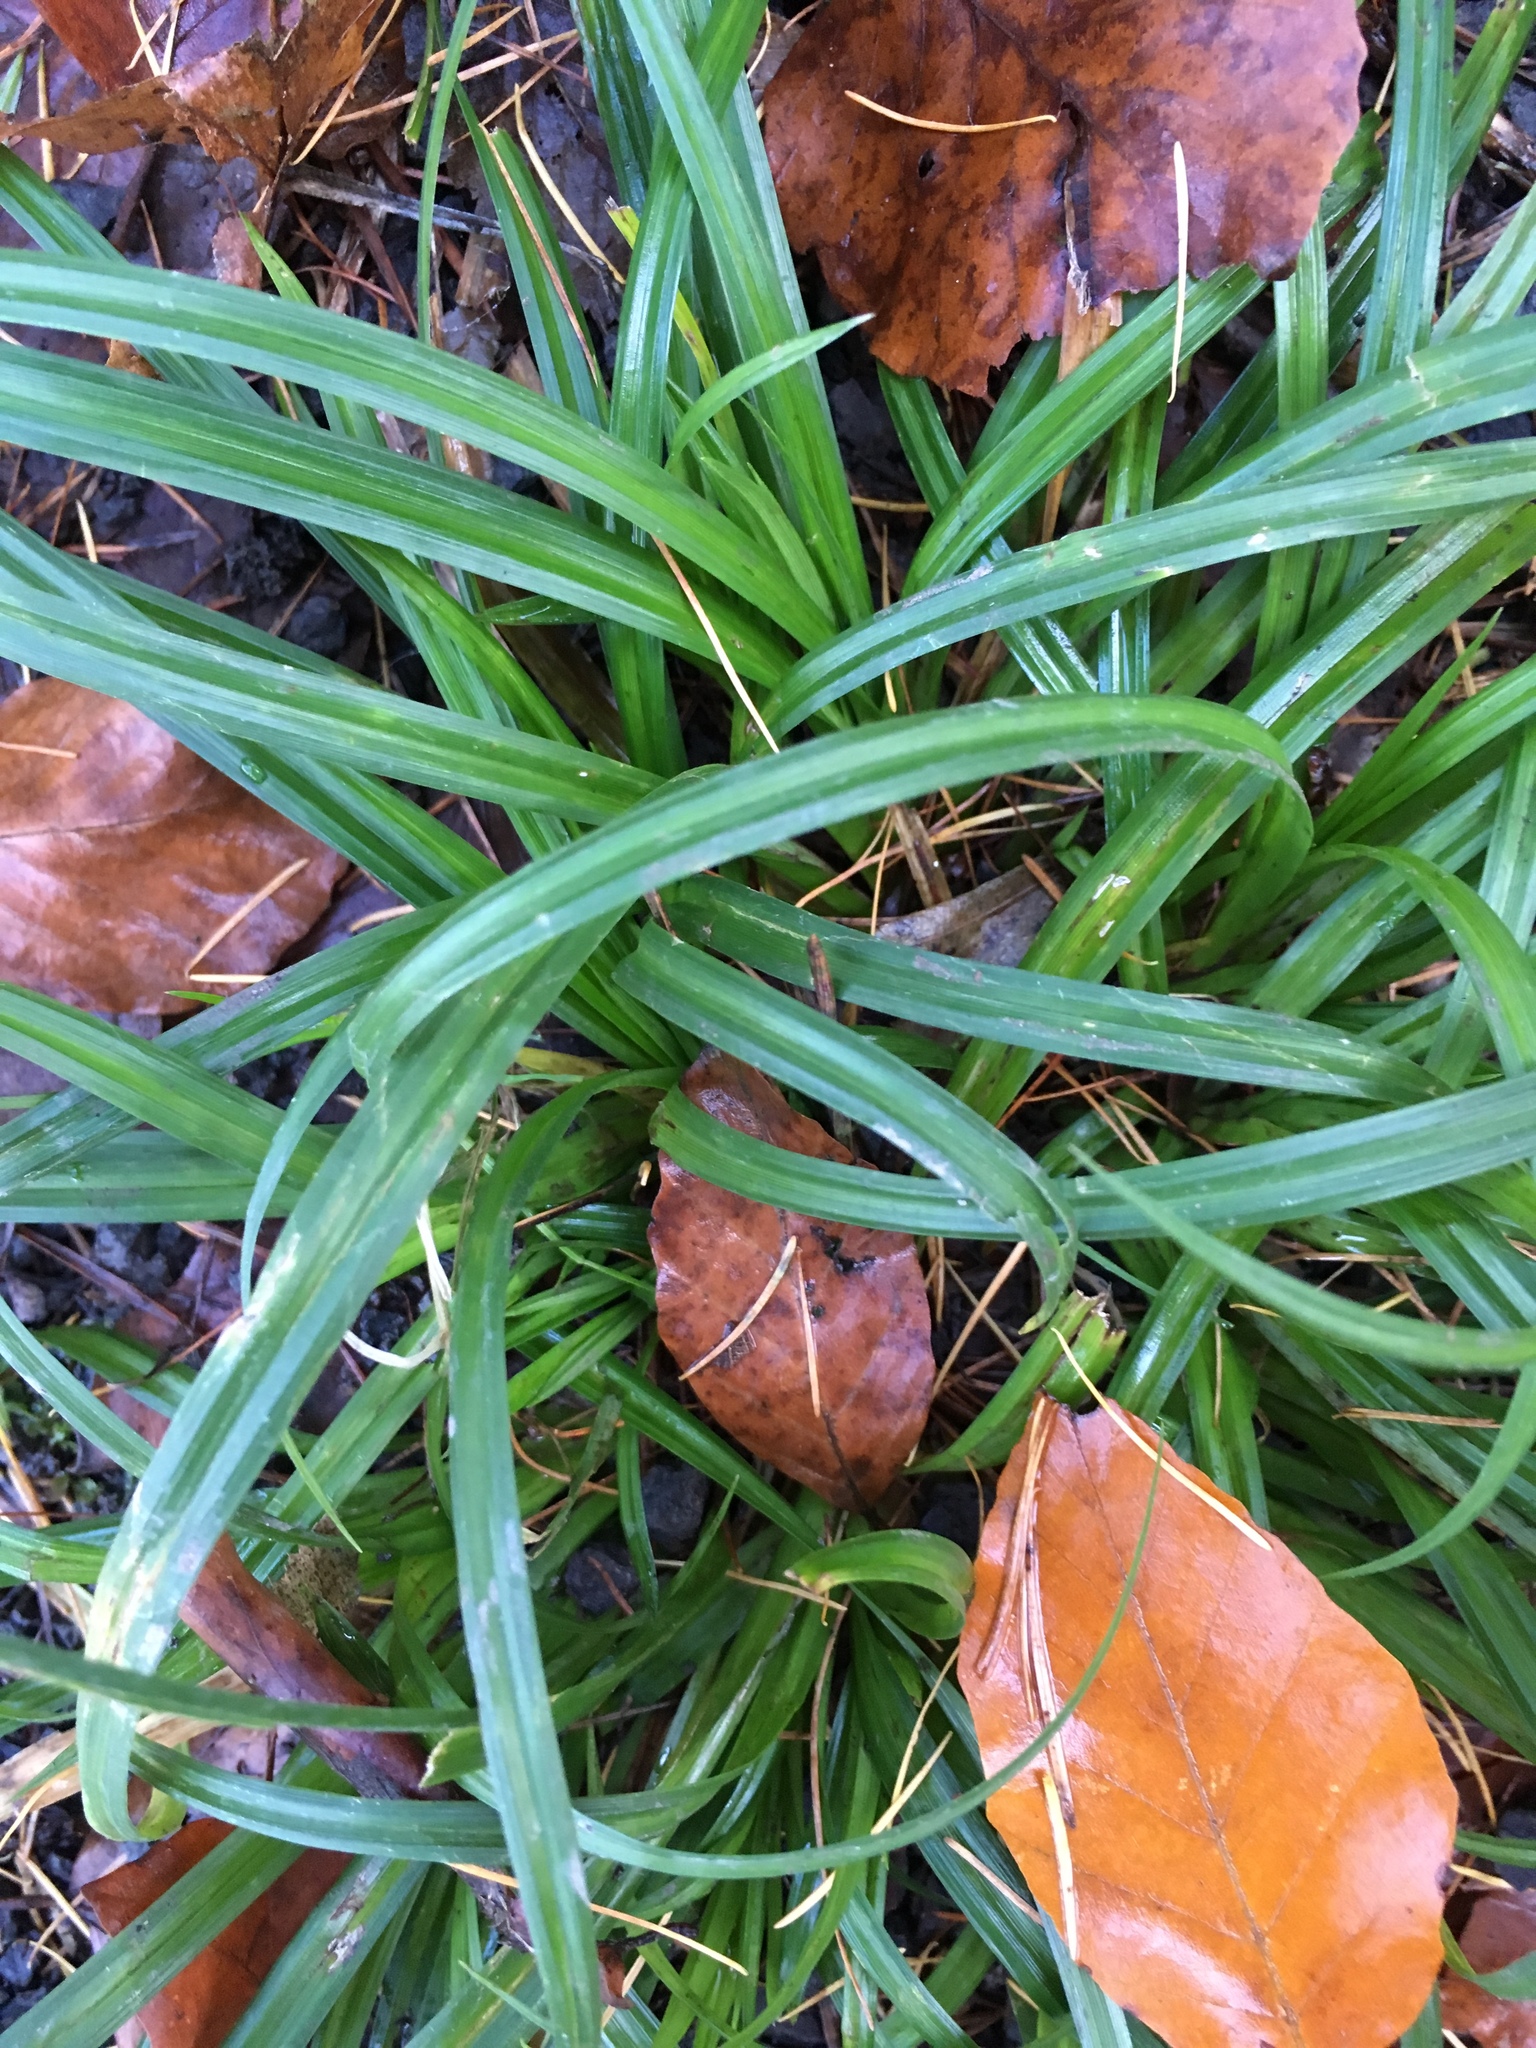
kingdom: Plantae
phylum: Tracheophyta
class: Liliopsida
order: Poales
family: Cyperaceae
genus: Carex
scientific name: Carex sylvatica
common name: Wood-sedge
